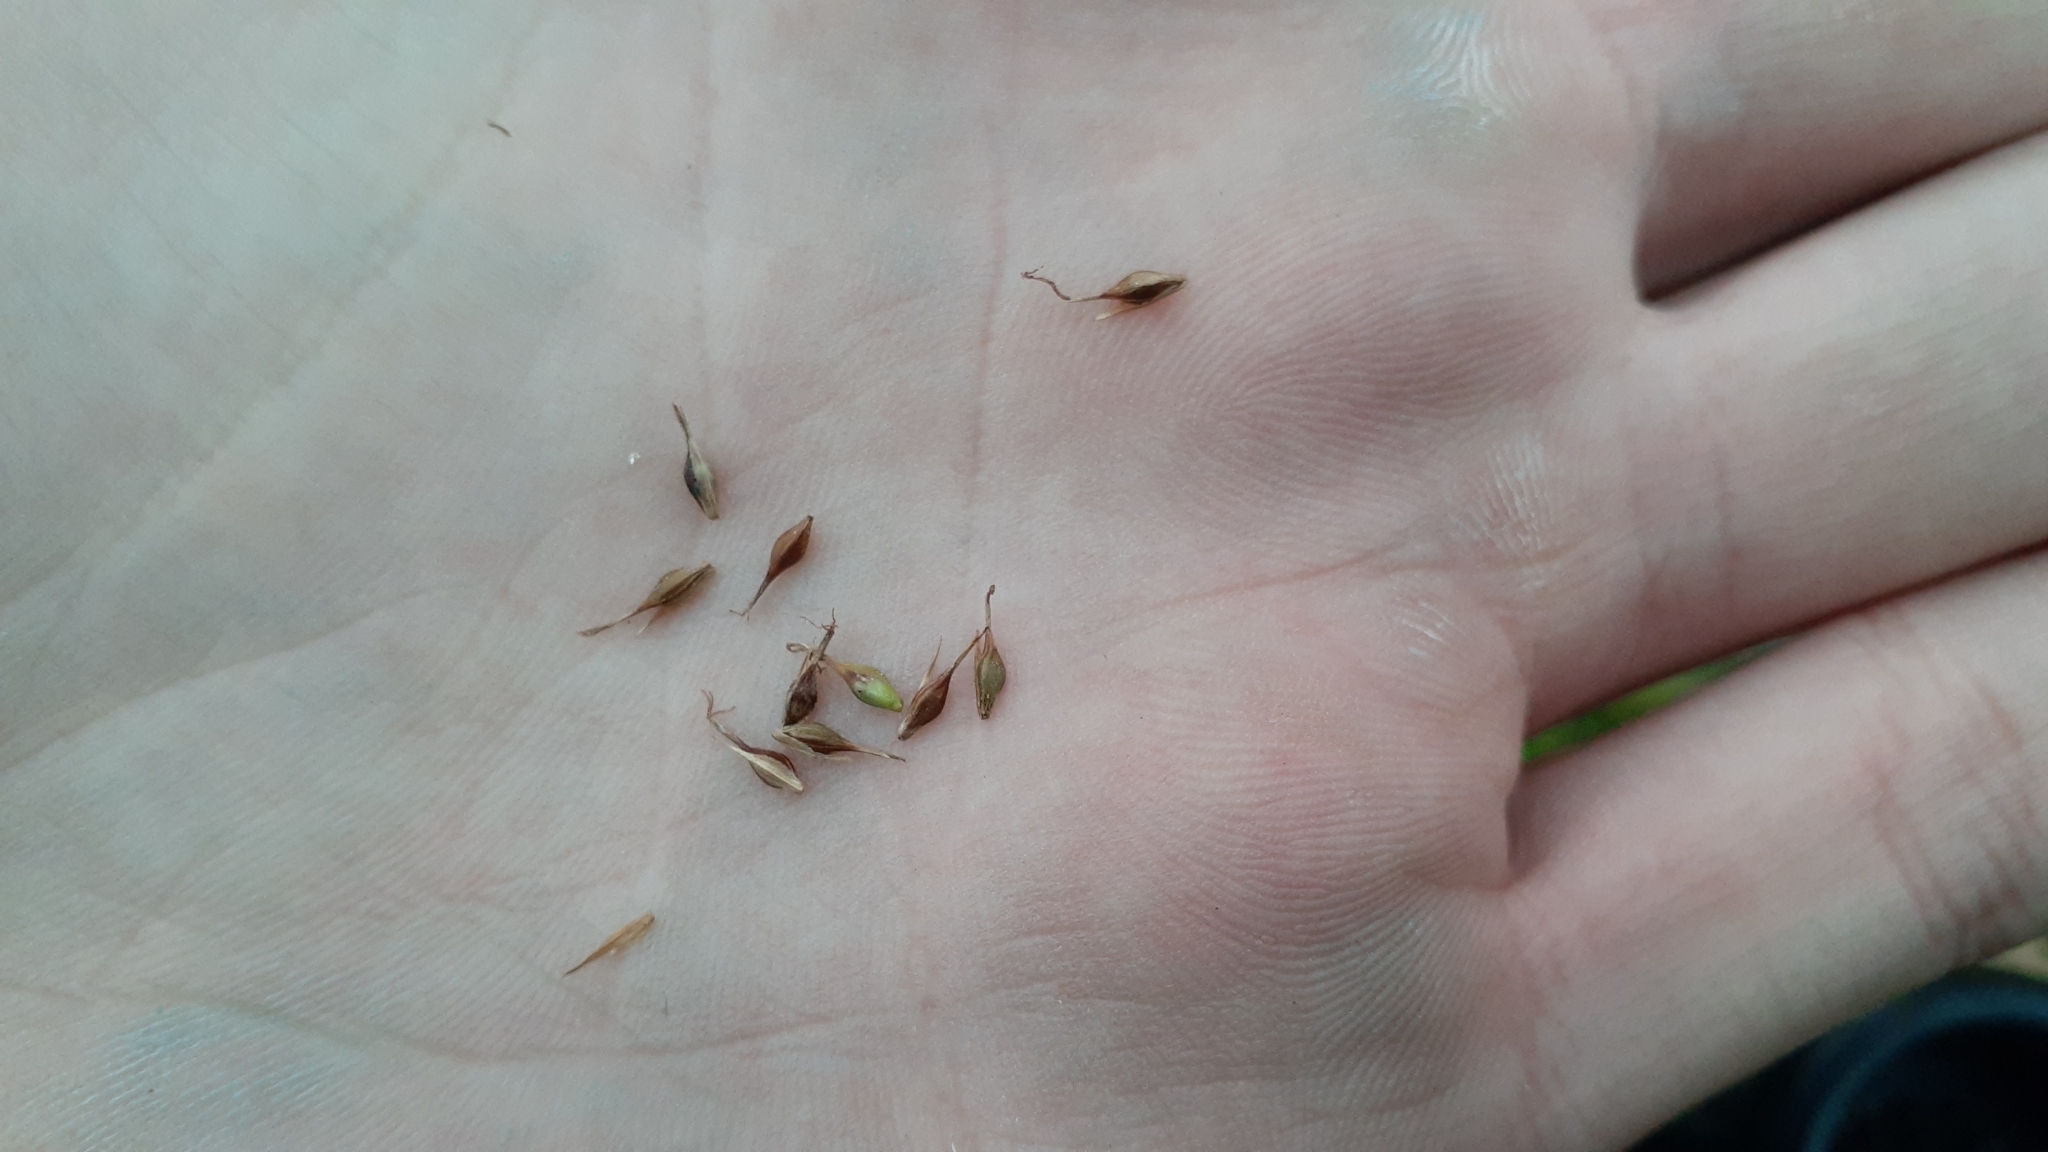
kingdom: Plantae
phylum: Tracheophyta
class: Liliopsida
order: Poales
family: Cyperaceae
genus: Carex
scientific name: Carex sylvatica
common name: Wood-sedge
